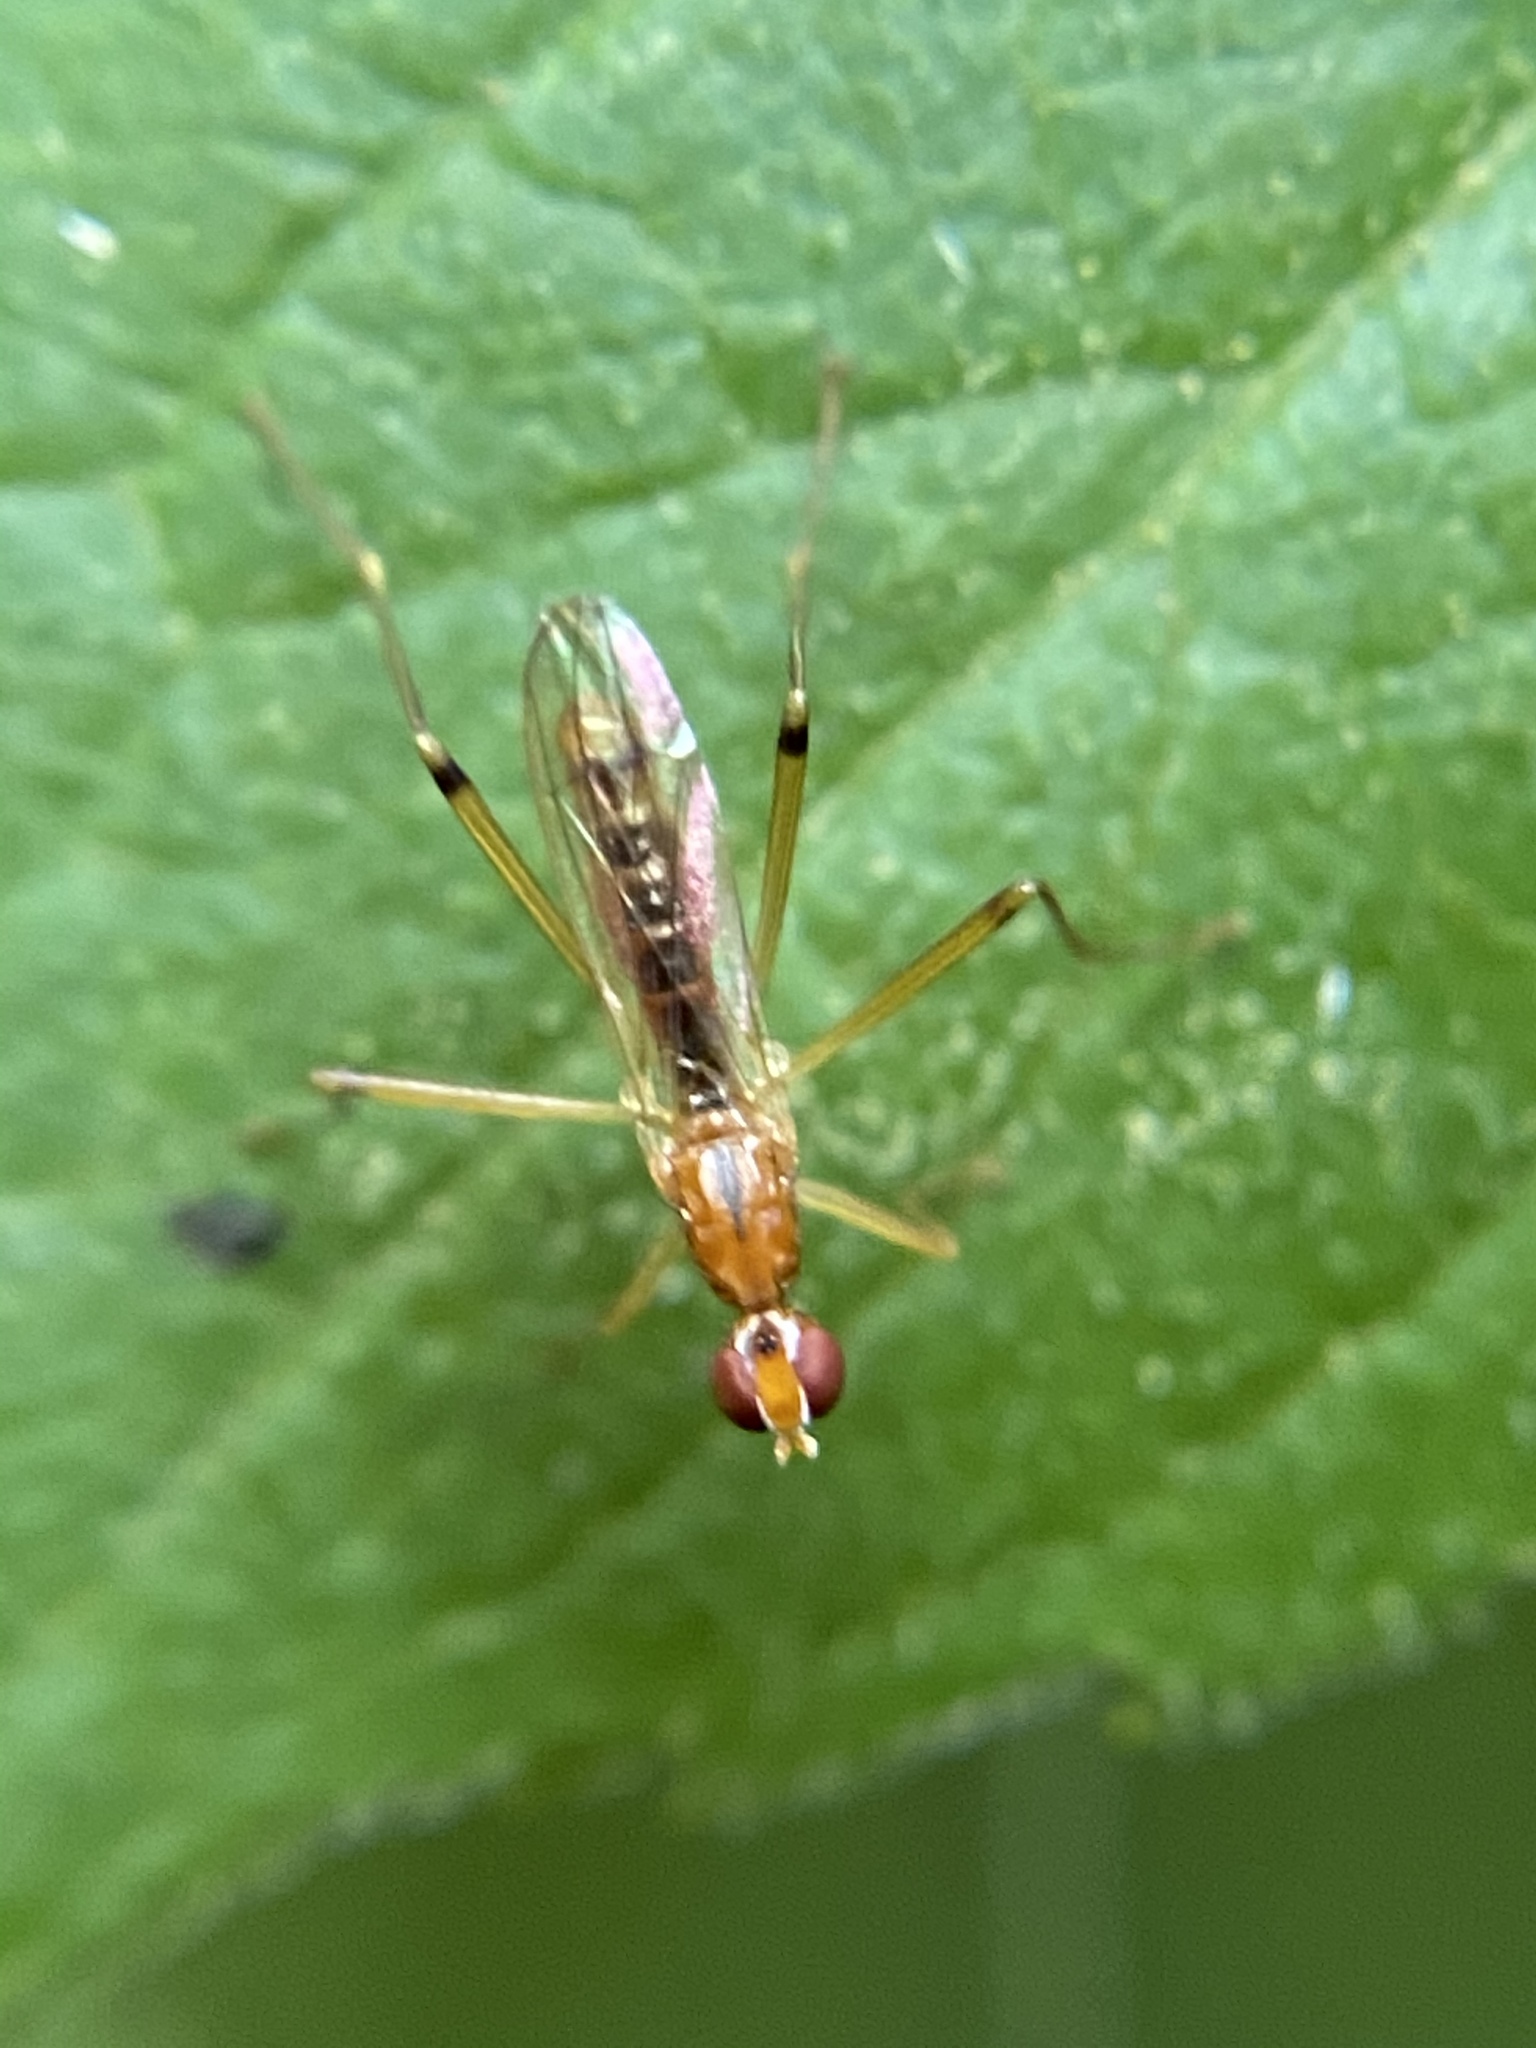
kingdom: Animalia
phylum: Arthropoda
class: Insecta
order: Diptera
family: Micropezidae
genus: Compsobata
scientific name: Compsobata univitta
